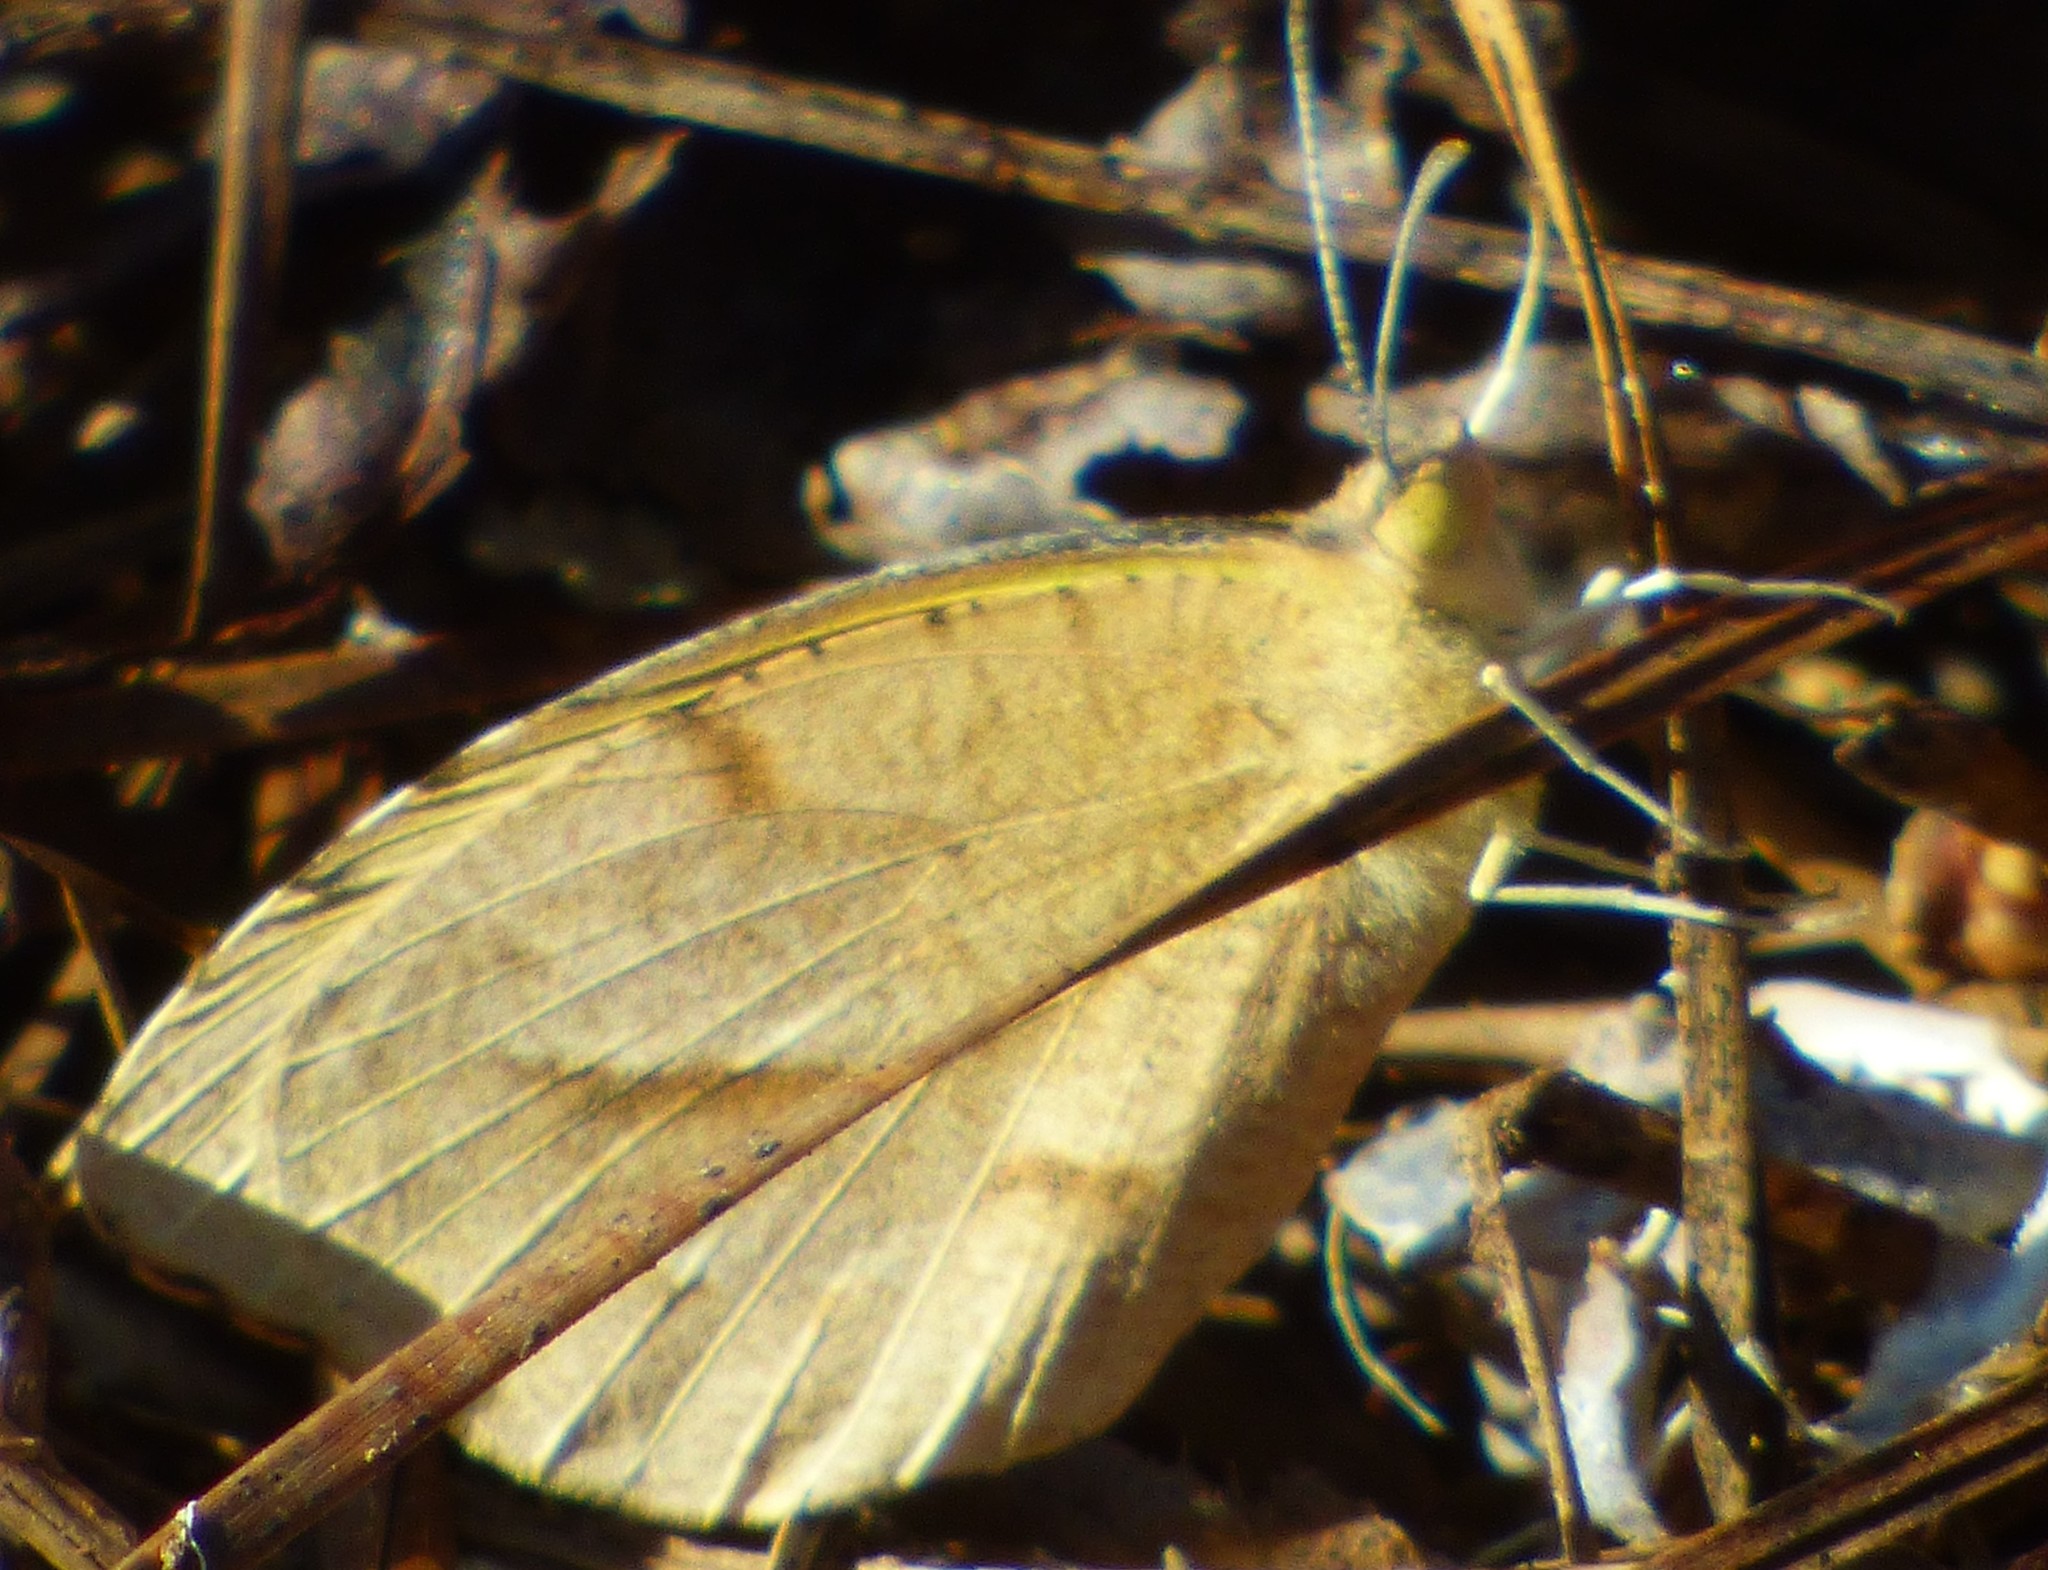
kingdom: Animalia
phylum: Arthropoda
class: Insecta
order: Lepidoptera
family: Pieridae
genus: Abaeis
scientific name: Abaeis nicippe
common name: Sleepy orange
